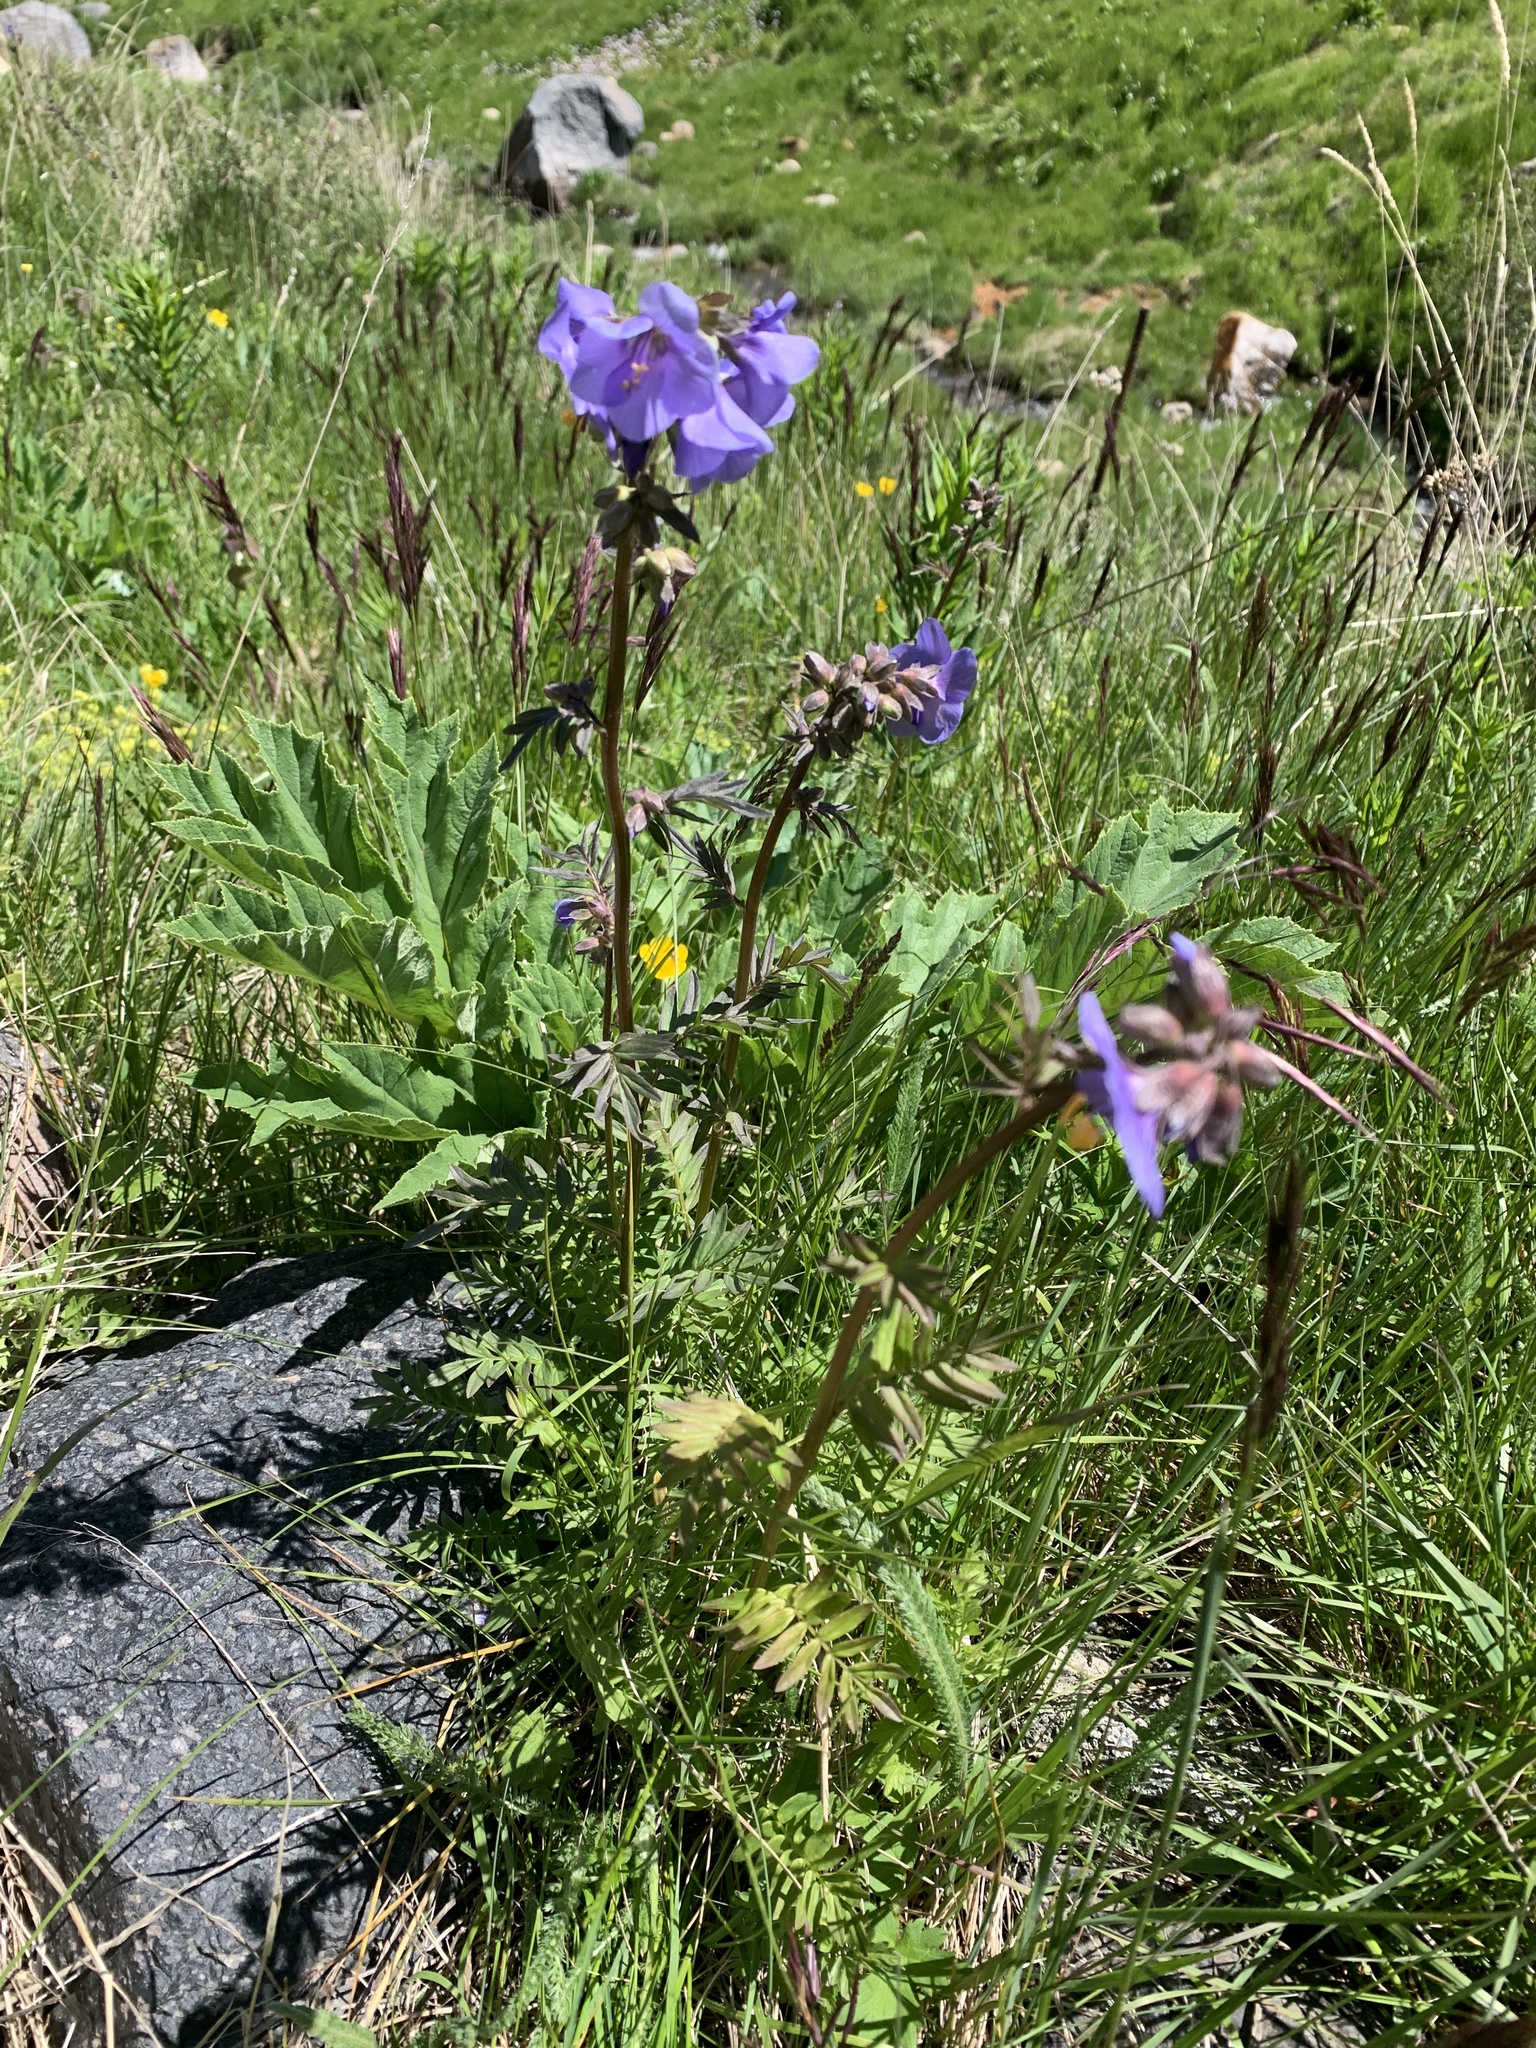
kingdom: Plantae
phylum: Tracheophyta
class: Magnoliopsida
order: Ericales
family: Polemoniaceae
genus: Polemonium
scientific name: Polemonium caeruleum
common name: Jacob's-ladder
